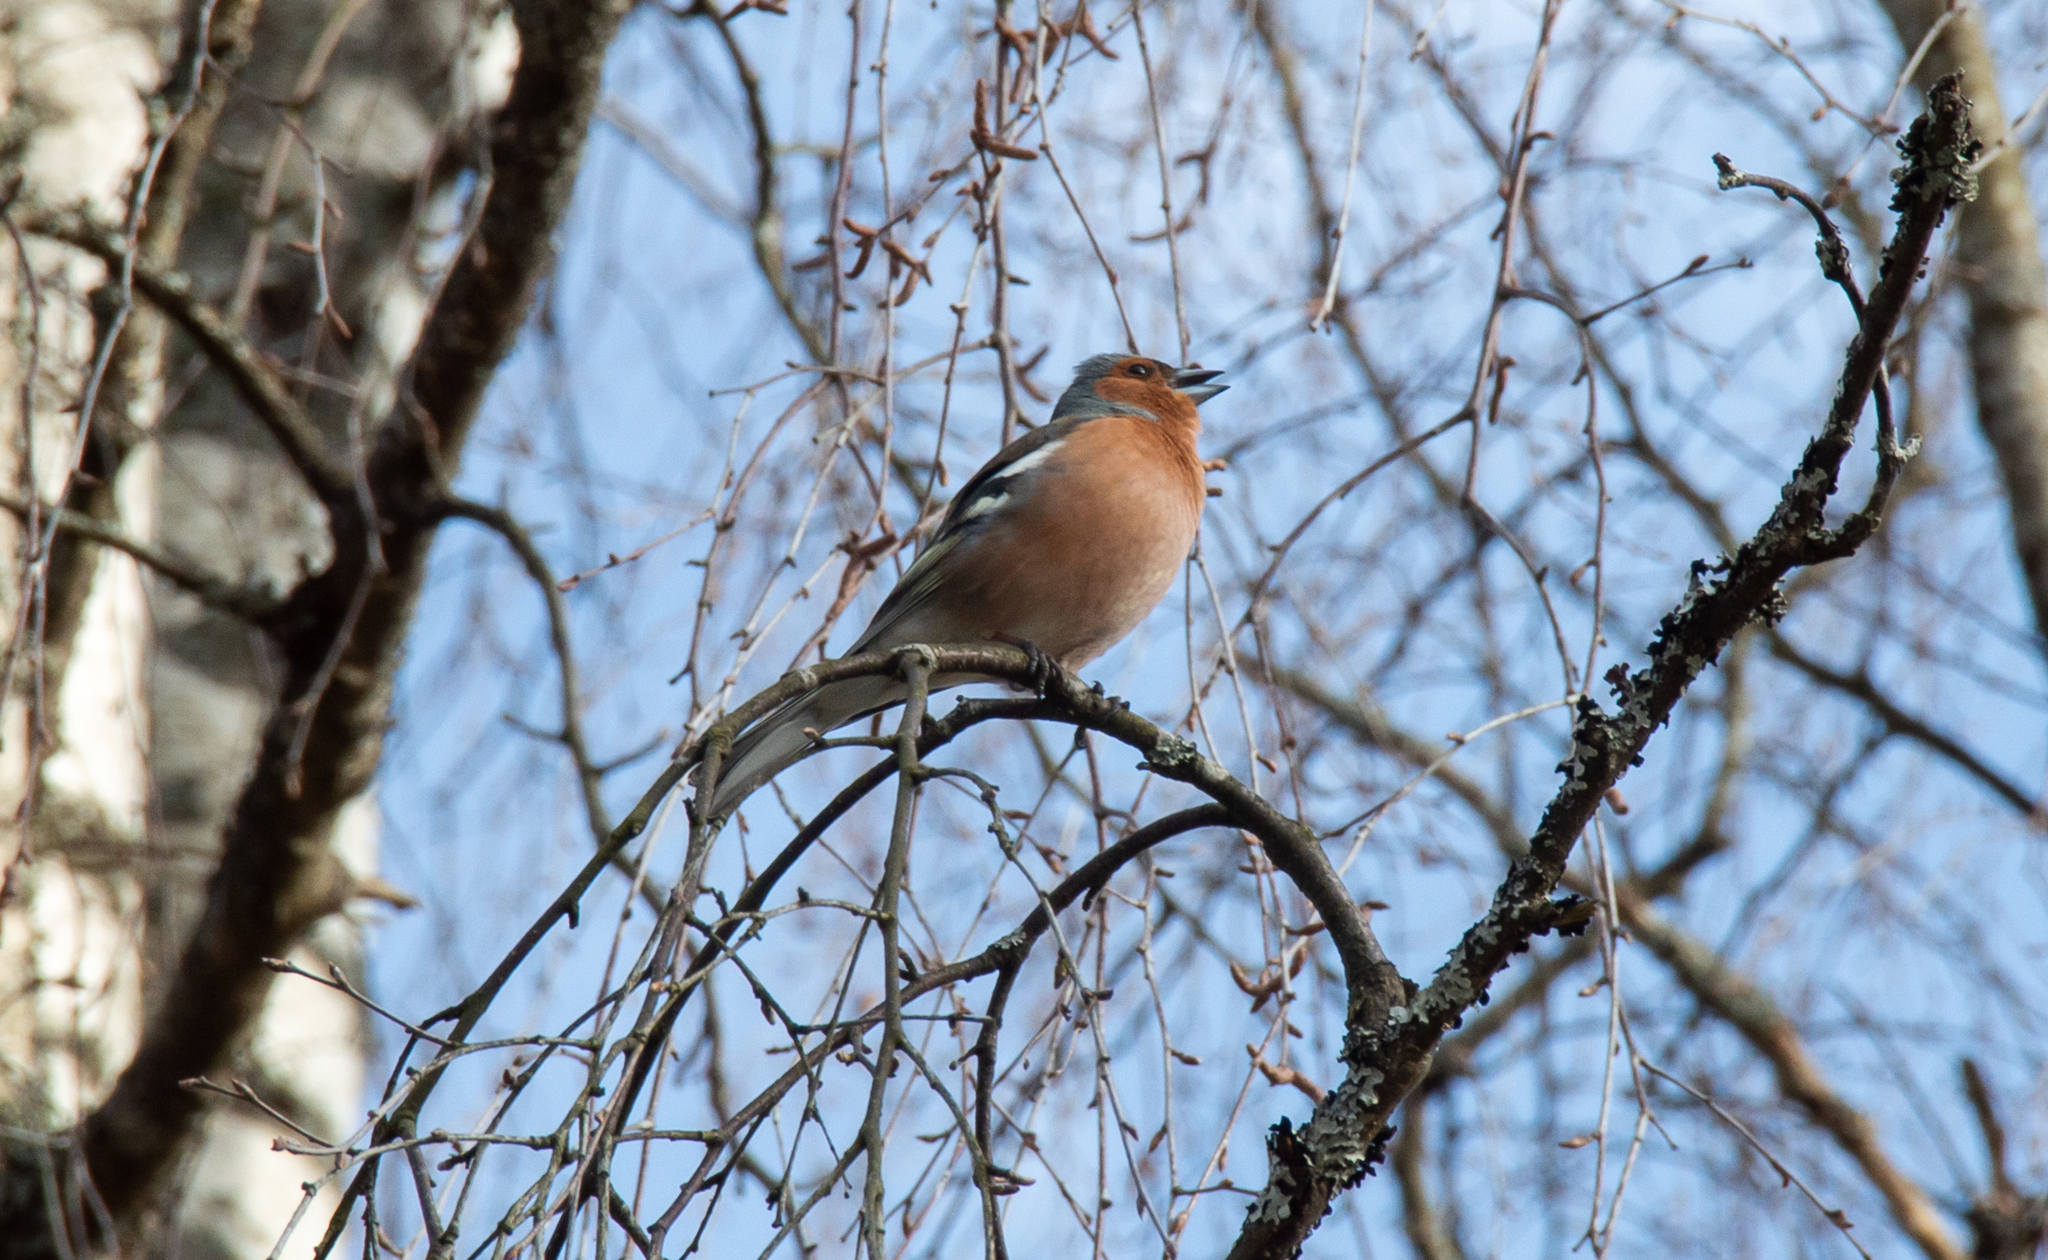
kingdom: Animalia
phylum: Chordata
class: Aves
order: Passeriformes
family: Fringillidae
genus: Fringilla
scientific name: Fringilla coelebs
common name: Common chaffinch
